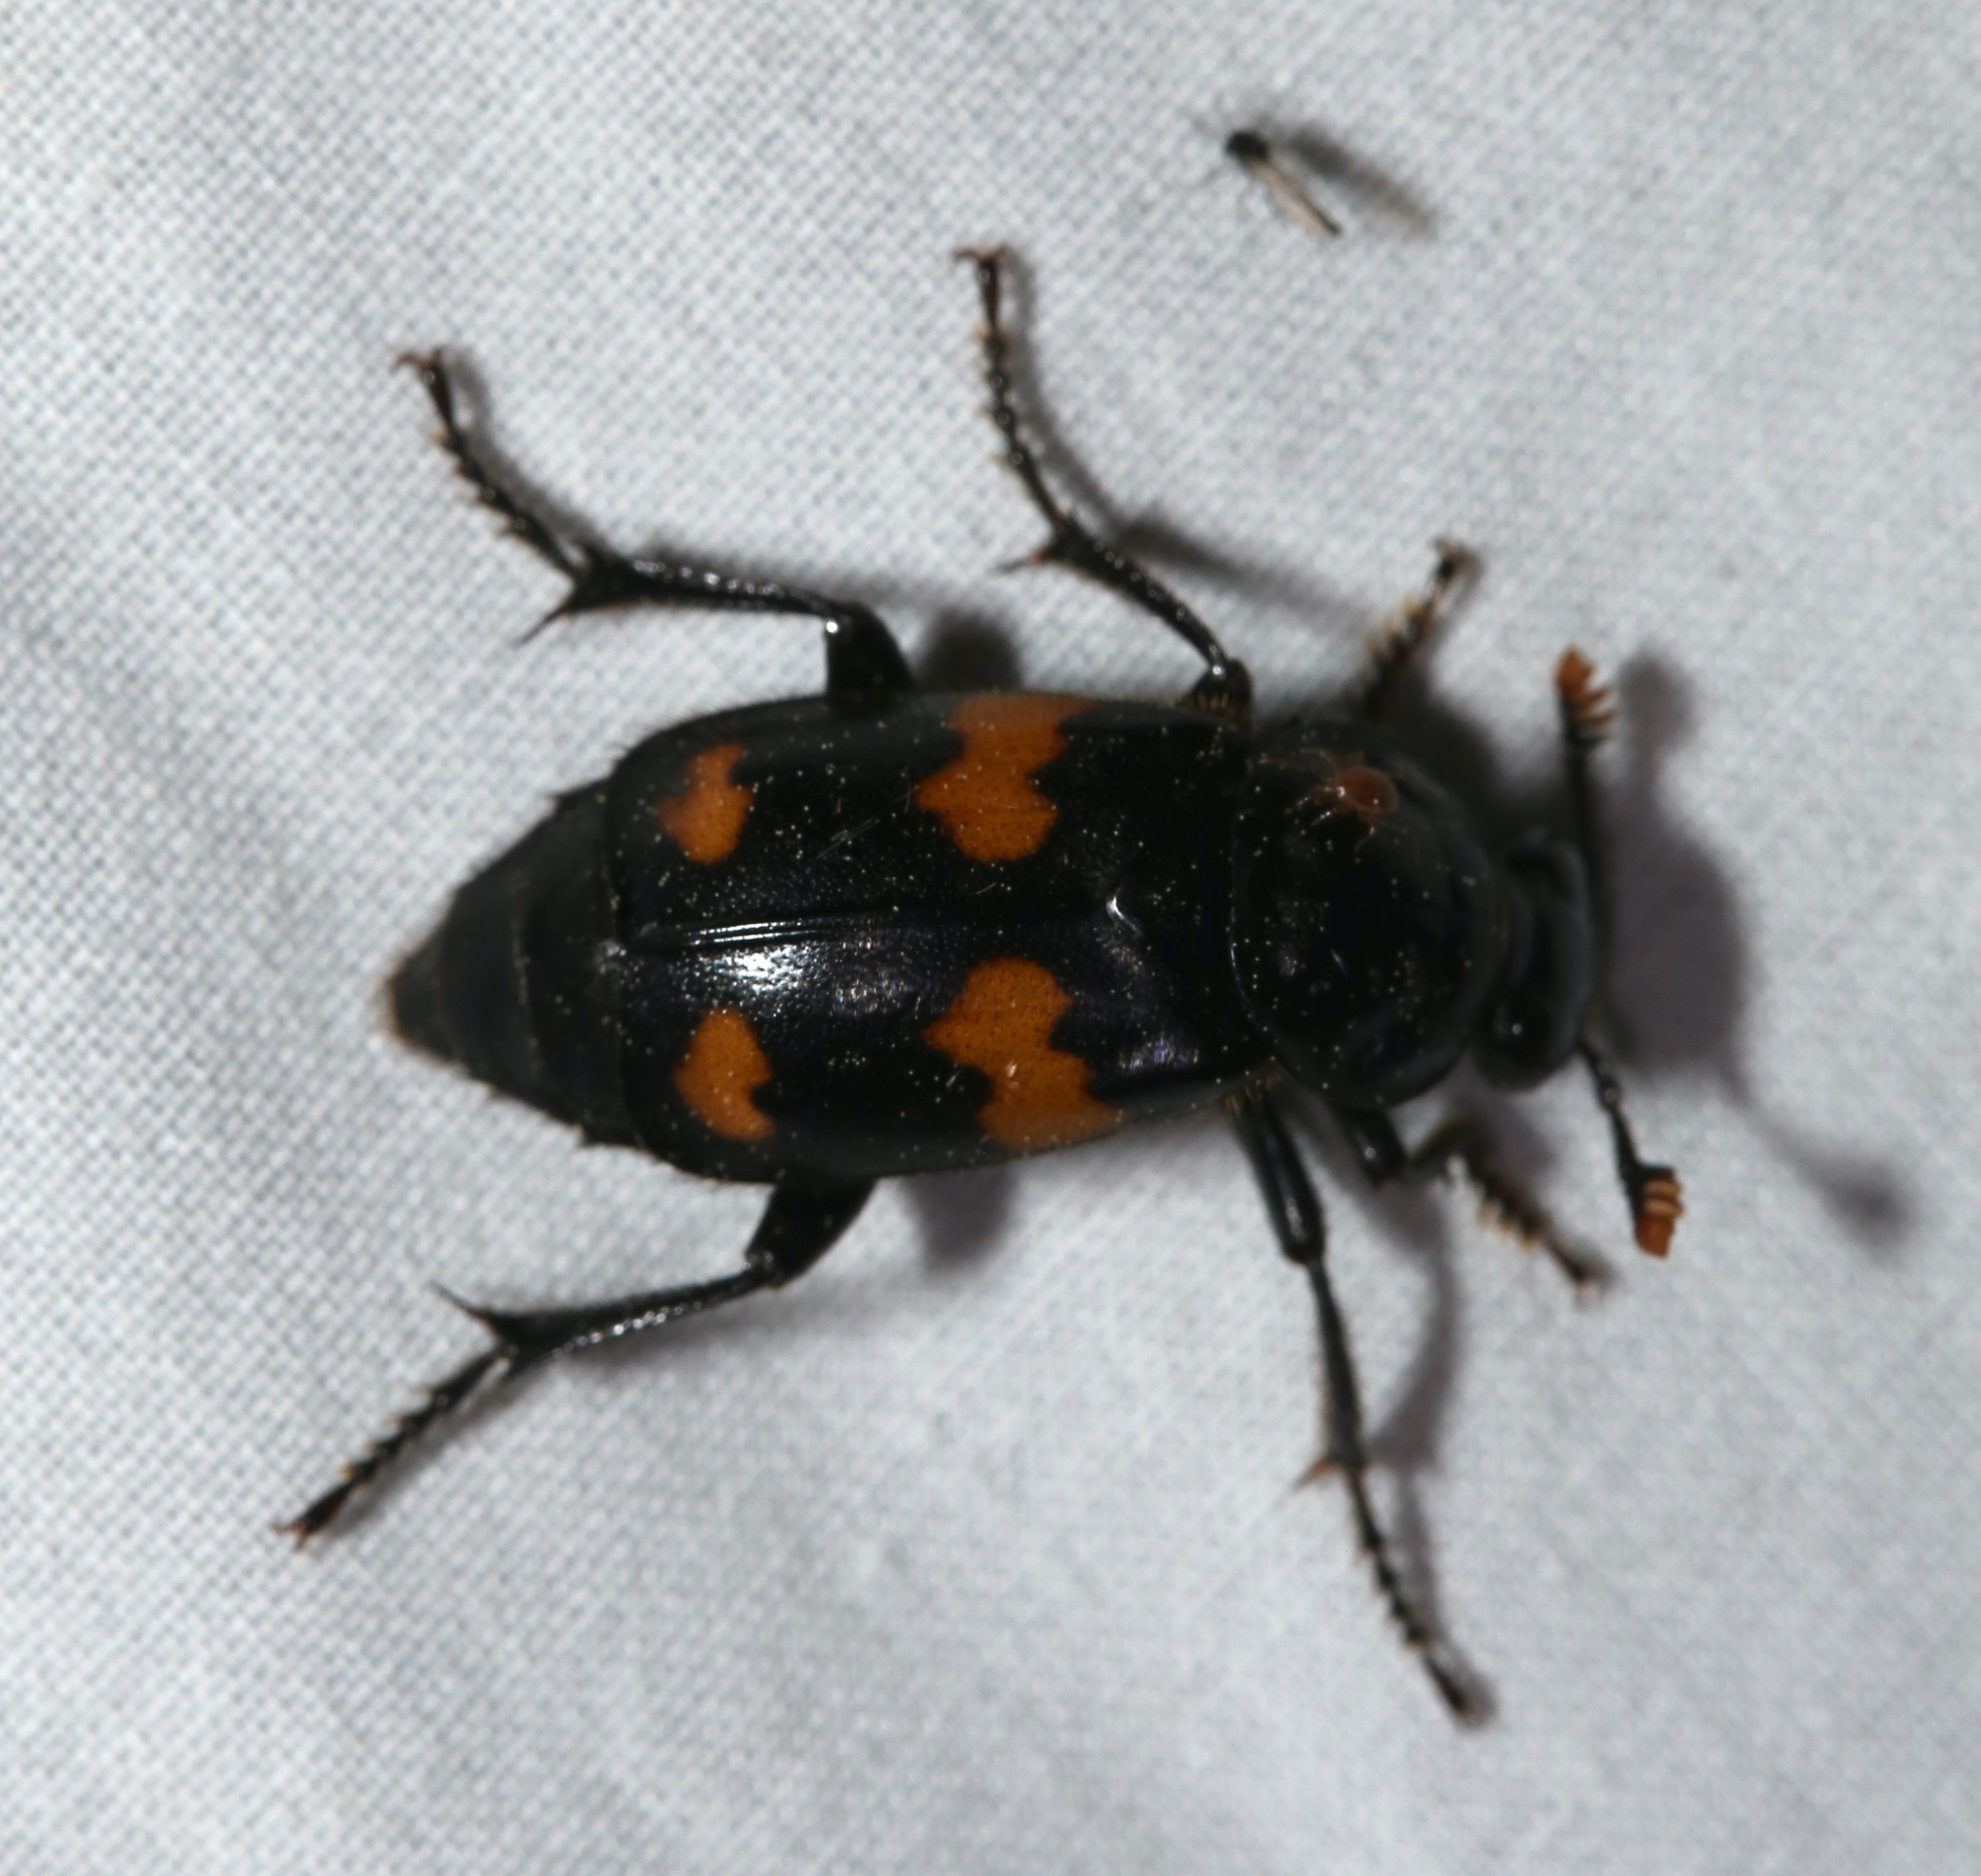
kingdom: Animalia
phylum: Arthropoda
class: Insecta
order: Coleoptera
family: Staphylinidae
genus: Nicrophorus
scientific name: Nicrophorus orbicollis
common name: Roundneck sexton beetle
